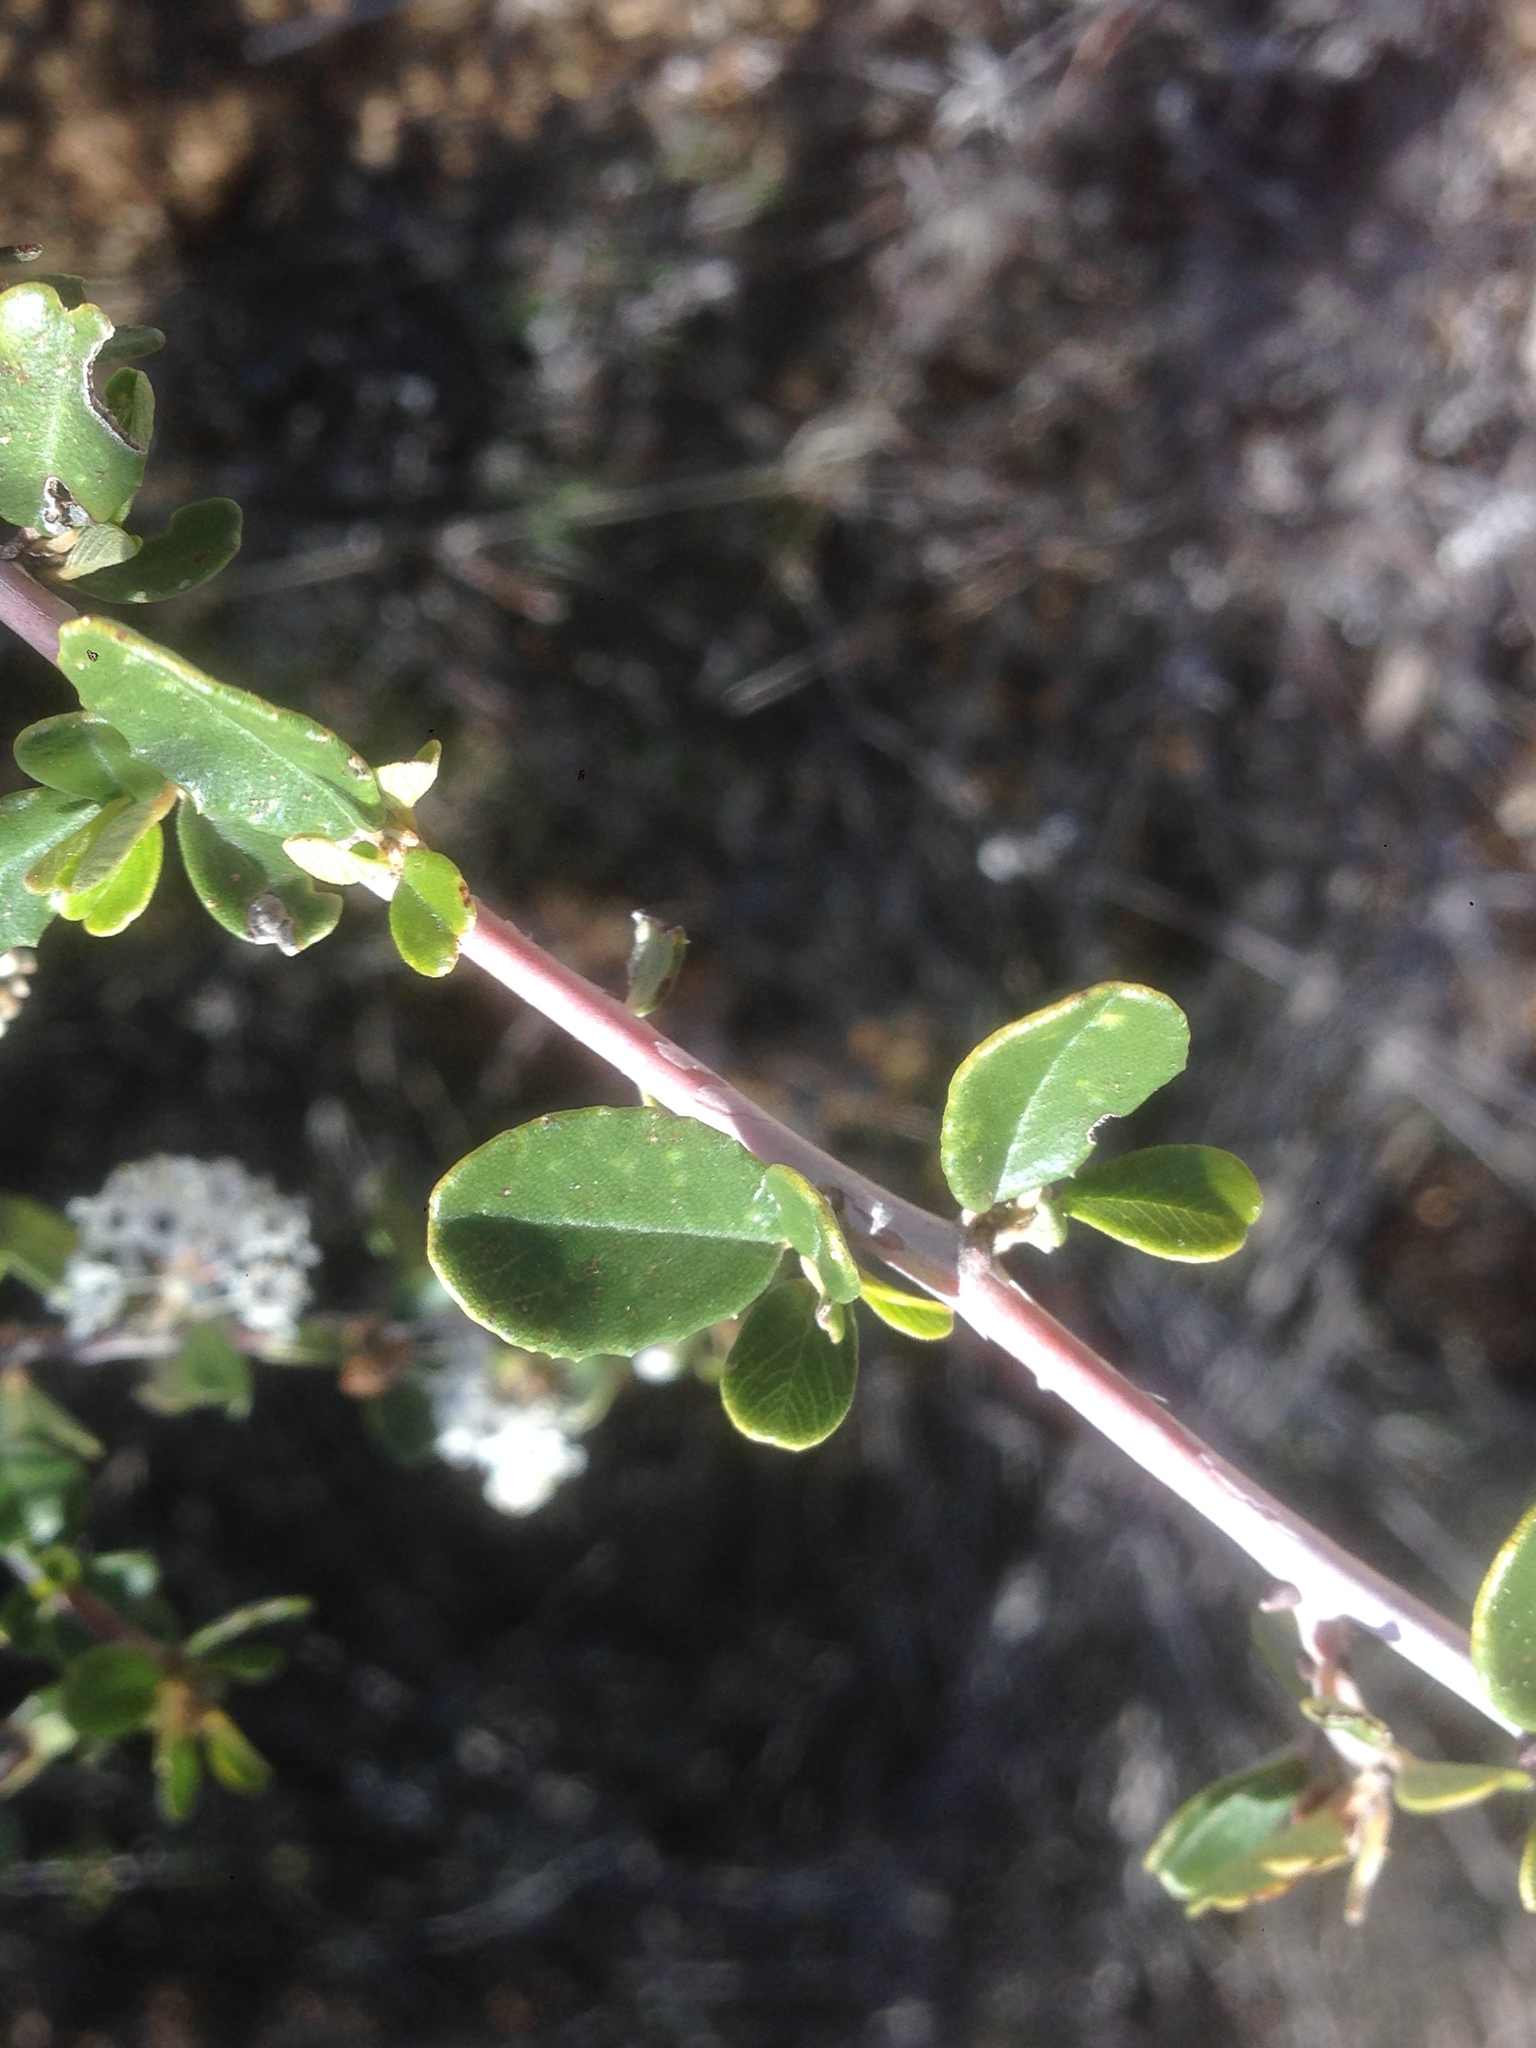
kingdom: Plantae
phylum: Tracheophyta
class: Magnoliopsida
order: Rosales
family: Rhamnaceae
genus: Ceanothus
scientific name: Ceanothus megacarpus
